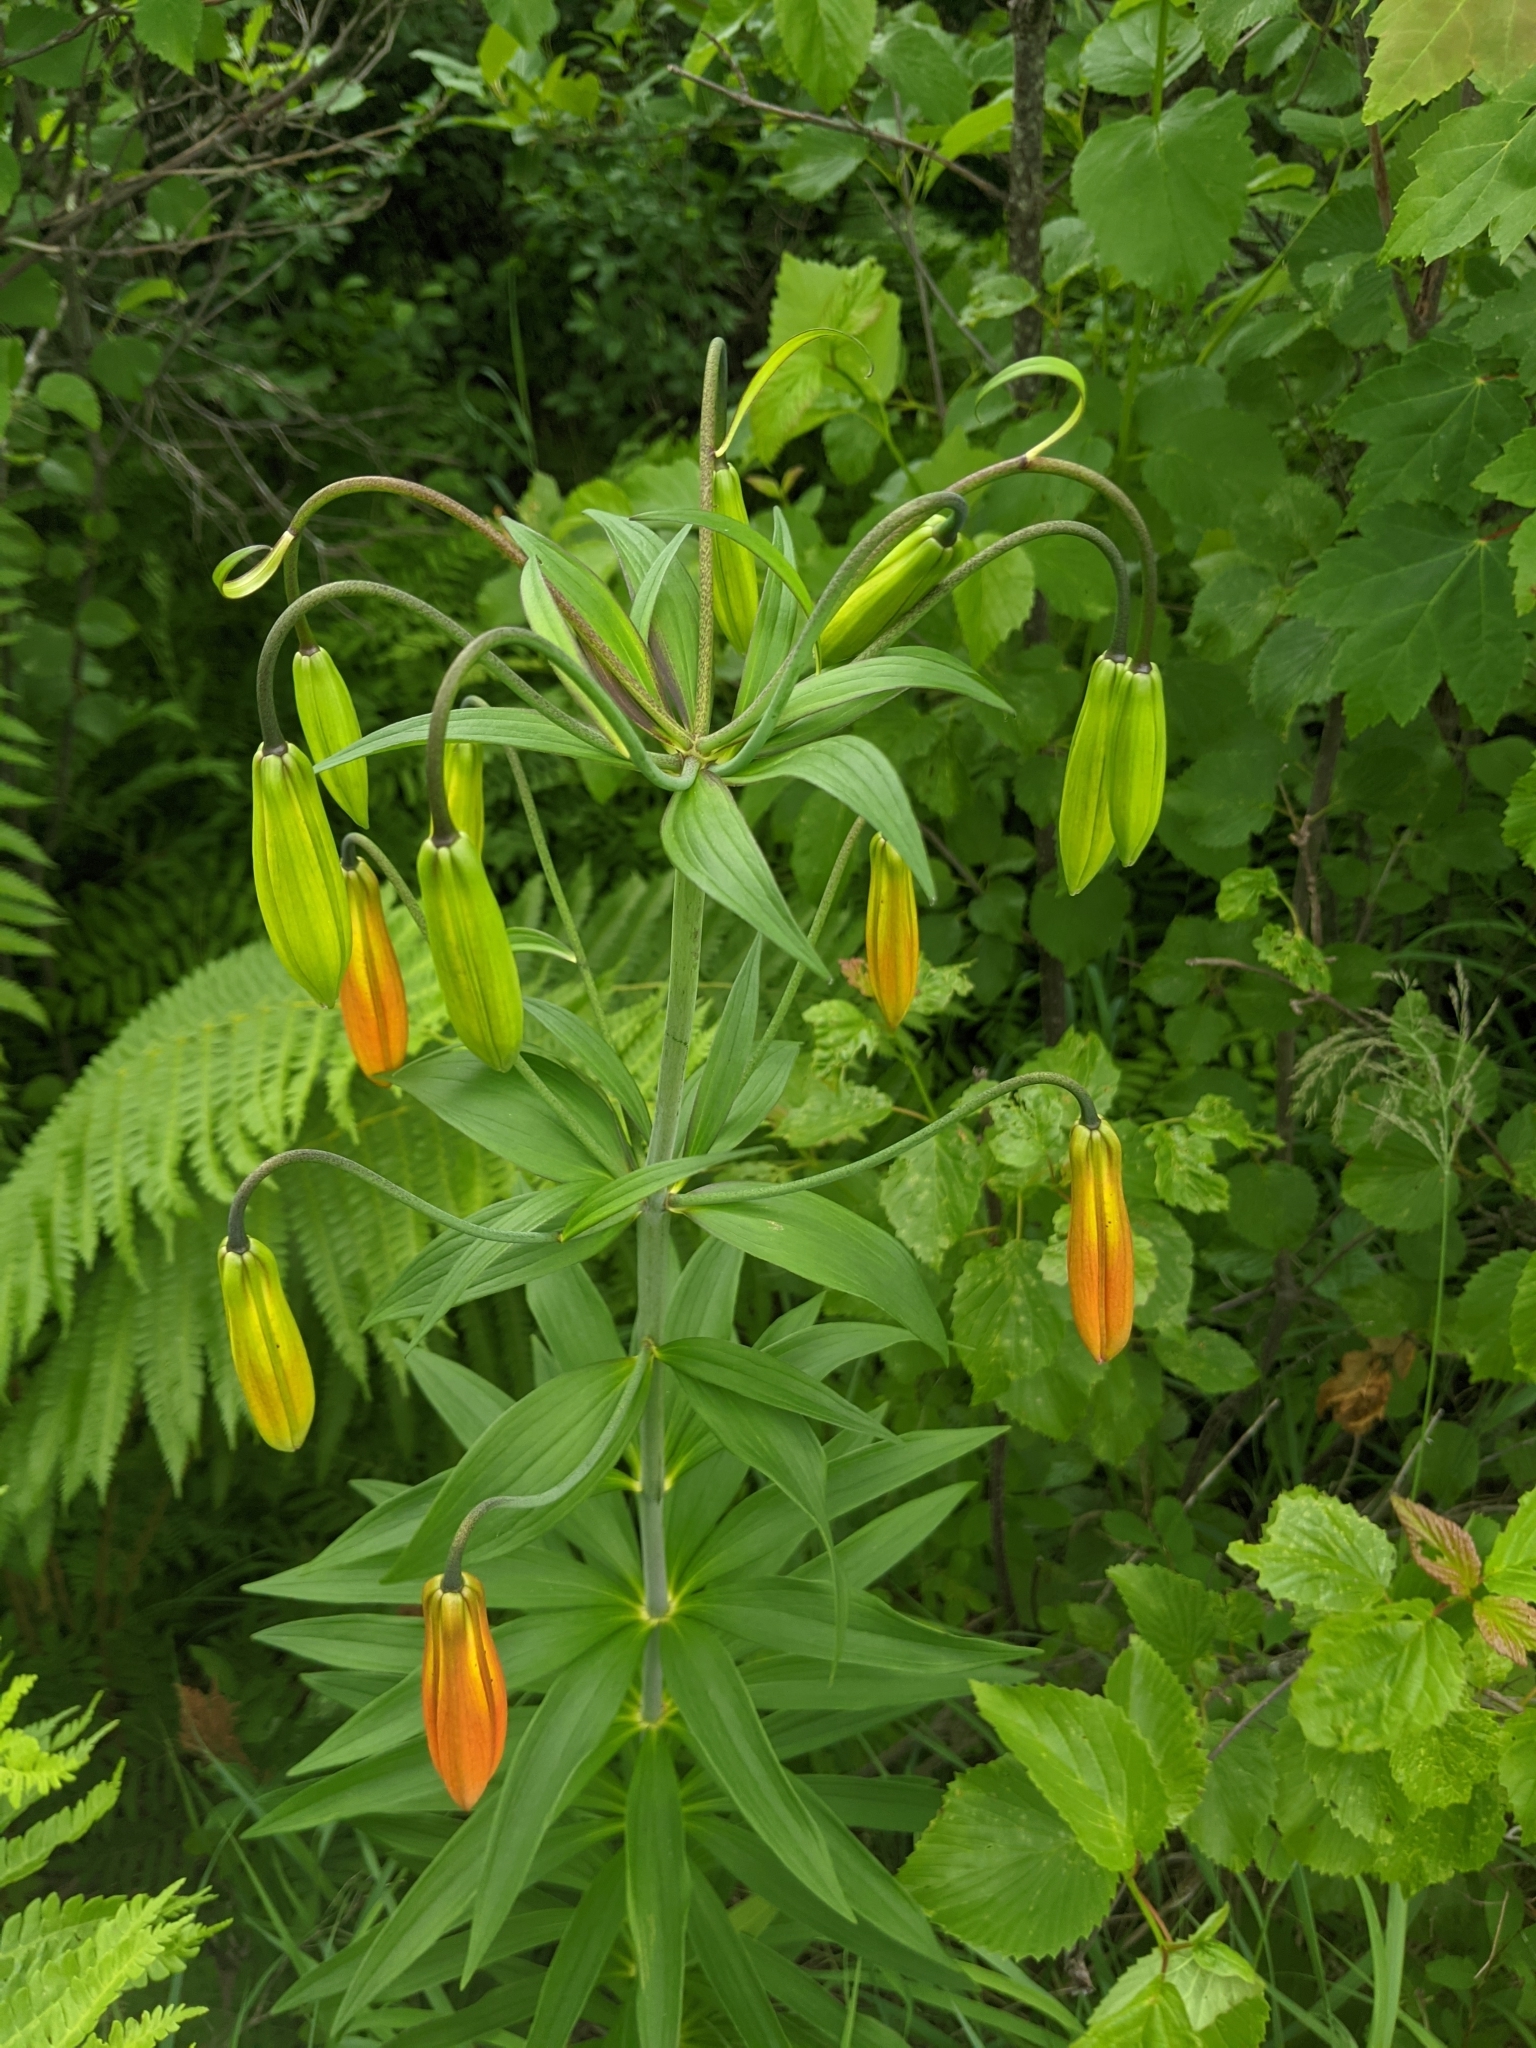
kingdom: Plantae
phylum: Tracheophyta
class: Liliopsida
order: Liliales
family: Liliaceae
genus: Lilium
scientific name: Lilium canadense
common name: Canada lily
